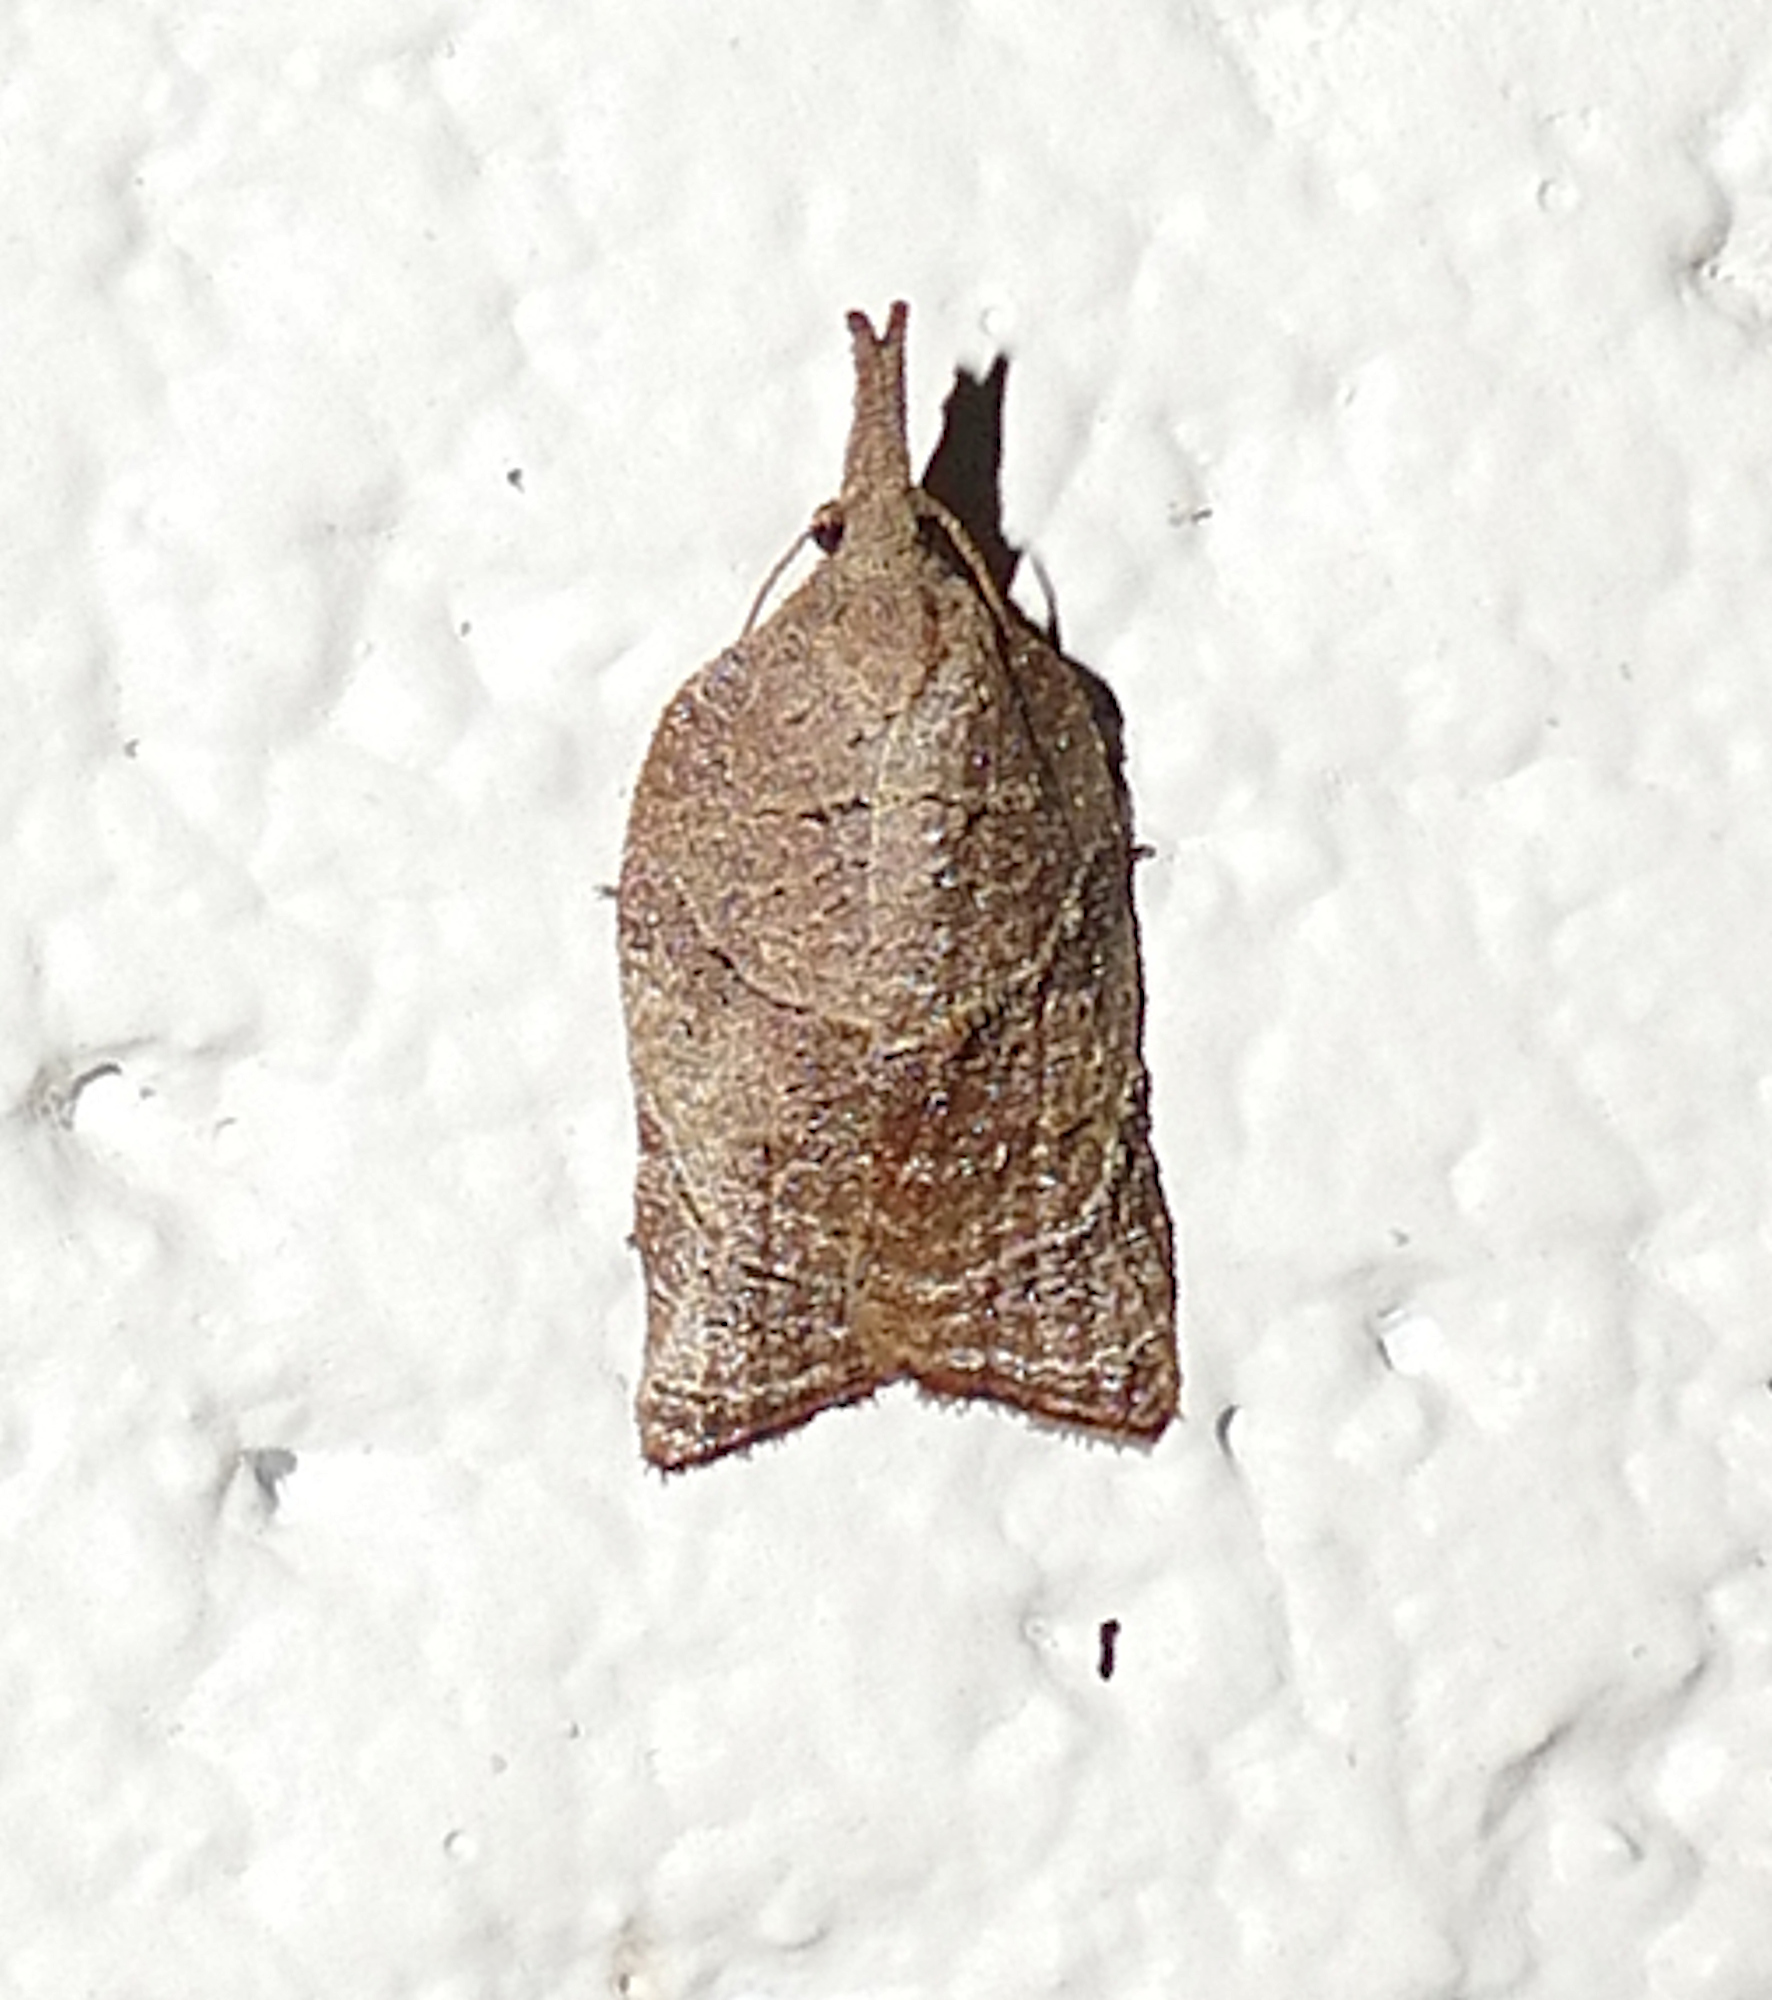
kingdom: Animalia
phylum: Arthropoda
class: Insecta
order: Lepidoptera
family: Tortricidae
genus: Platynota
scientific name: Platynota rostrana
